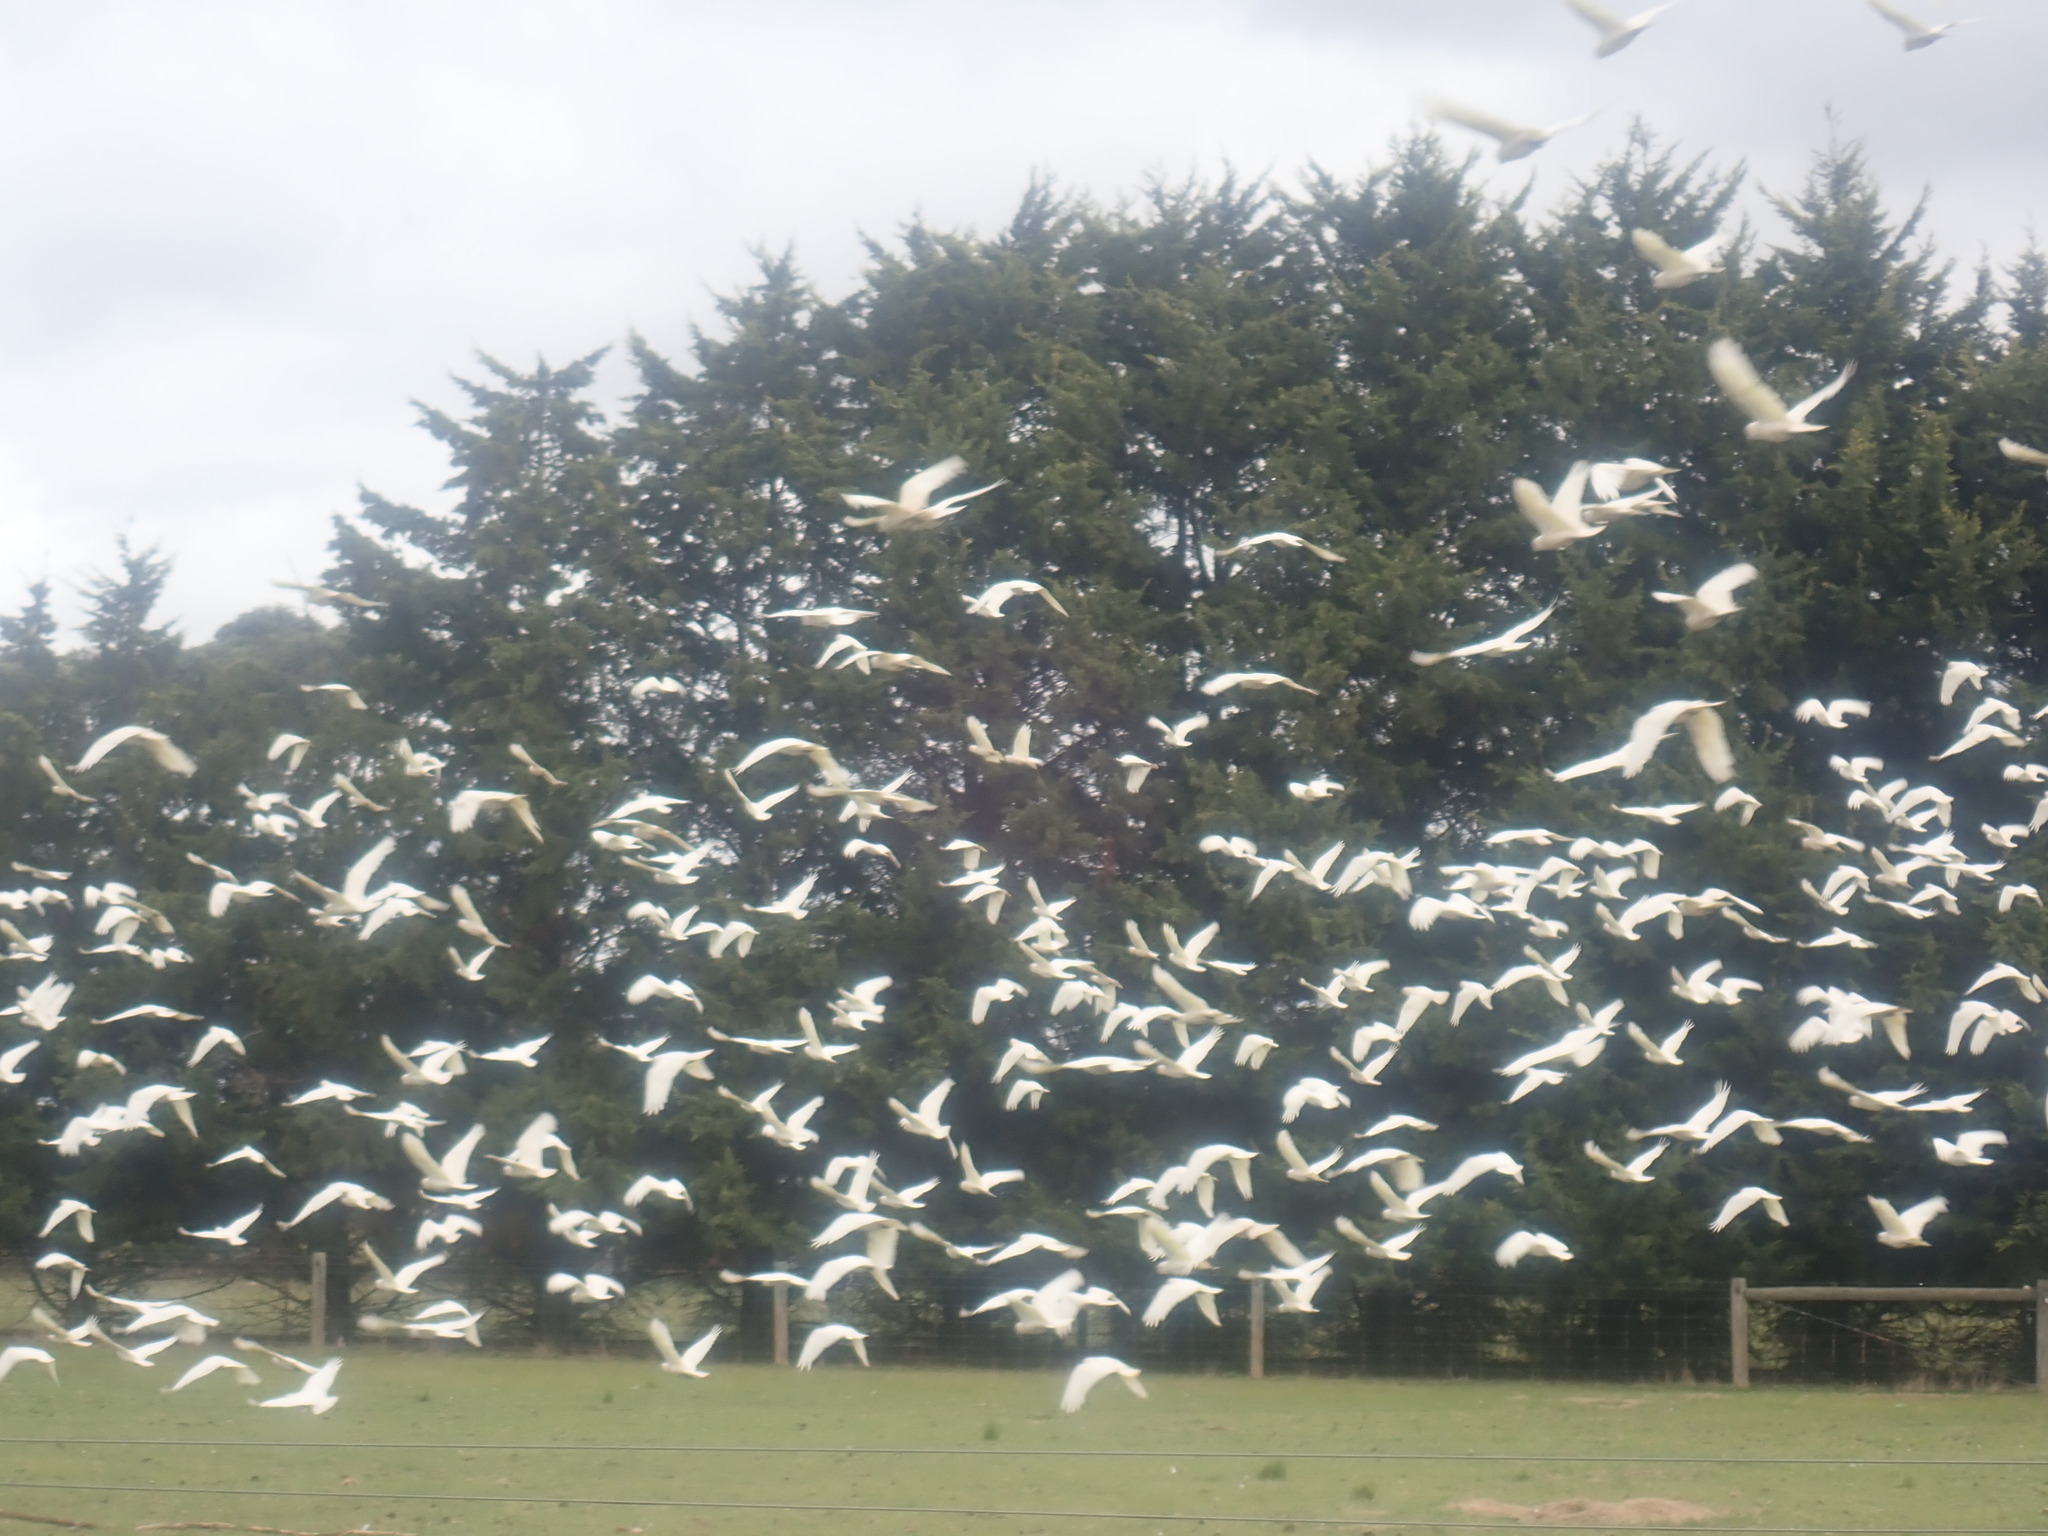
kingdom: Animalia
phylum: Chordata
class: Aves
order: Psittaciformes
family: Psittacidae
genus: Cacatua
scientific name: Cacatua sanguinea
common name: Little corella
